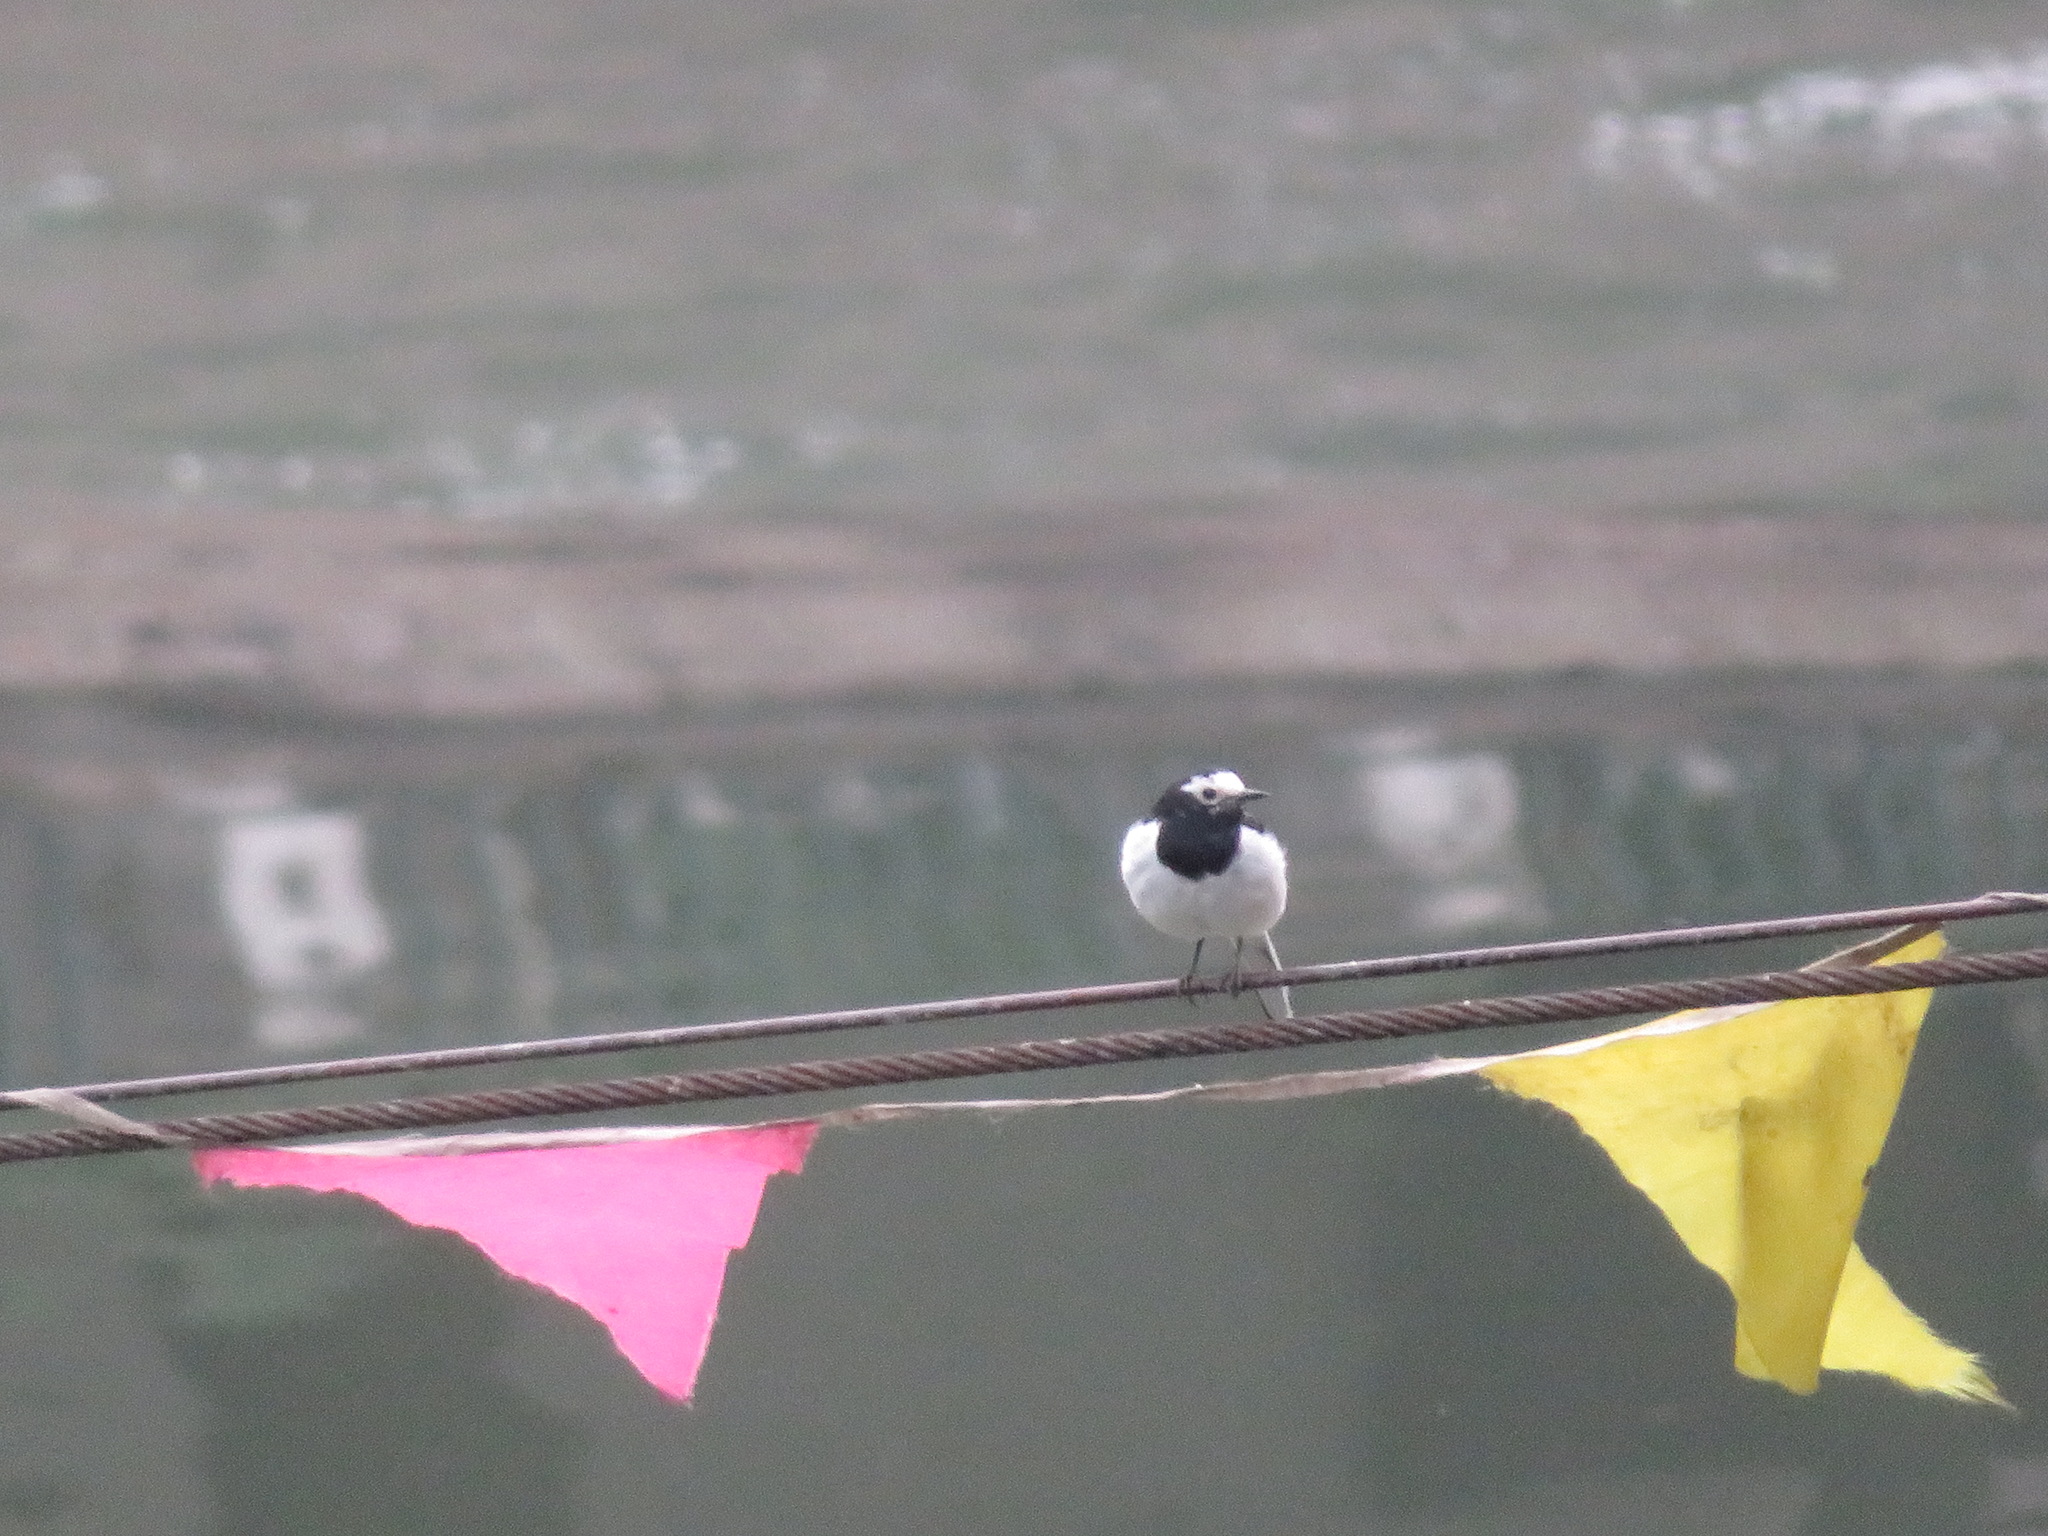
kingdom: Animalia
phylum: Chordata
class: Aves
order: Passeriformes
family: Motacillidae
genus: Motacilla
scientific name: Motacilla alba
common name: White wagtail
